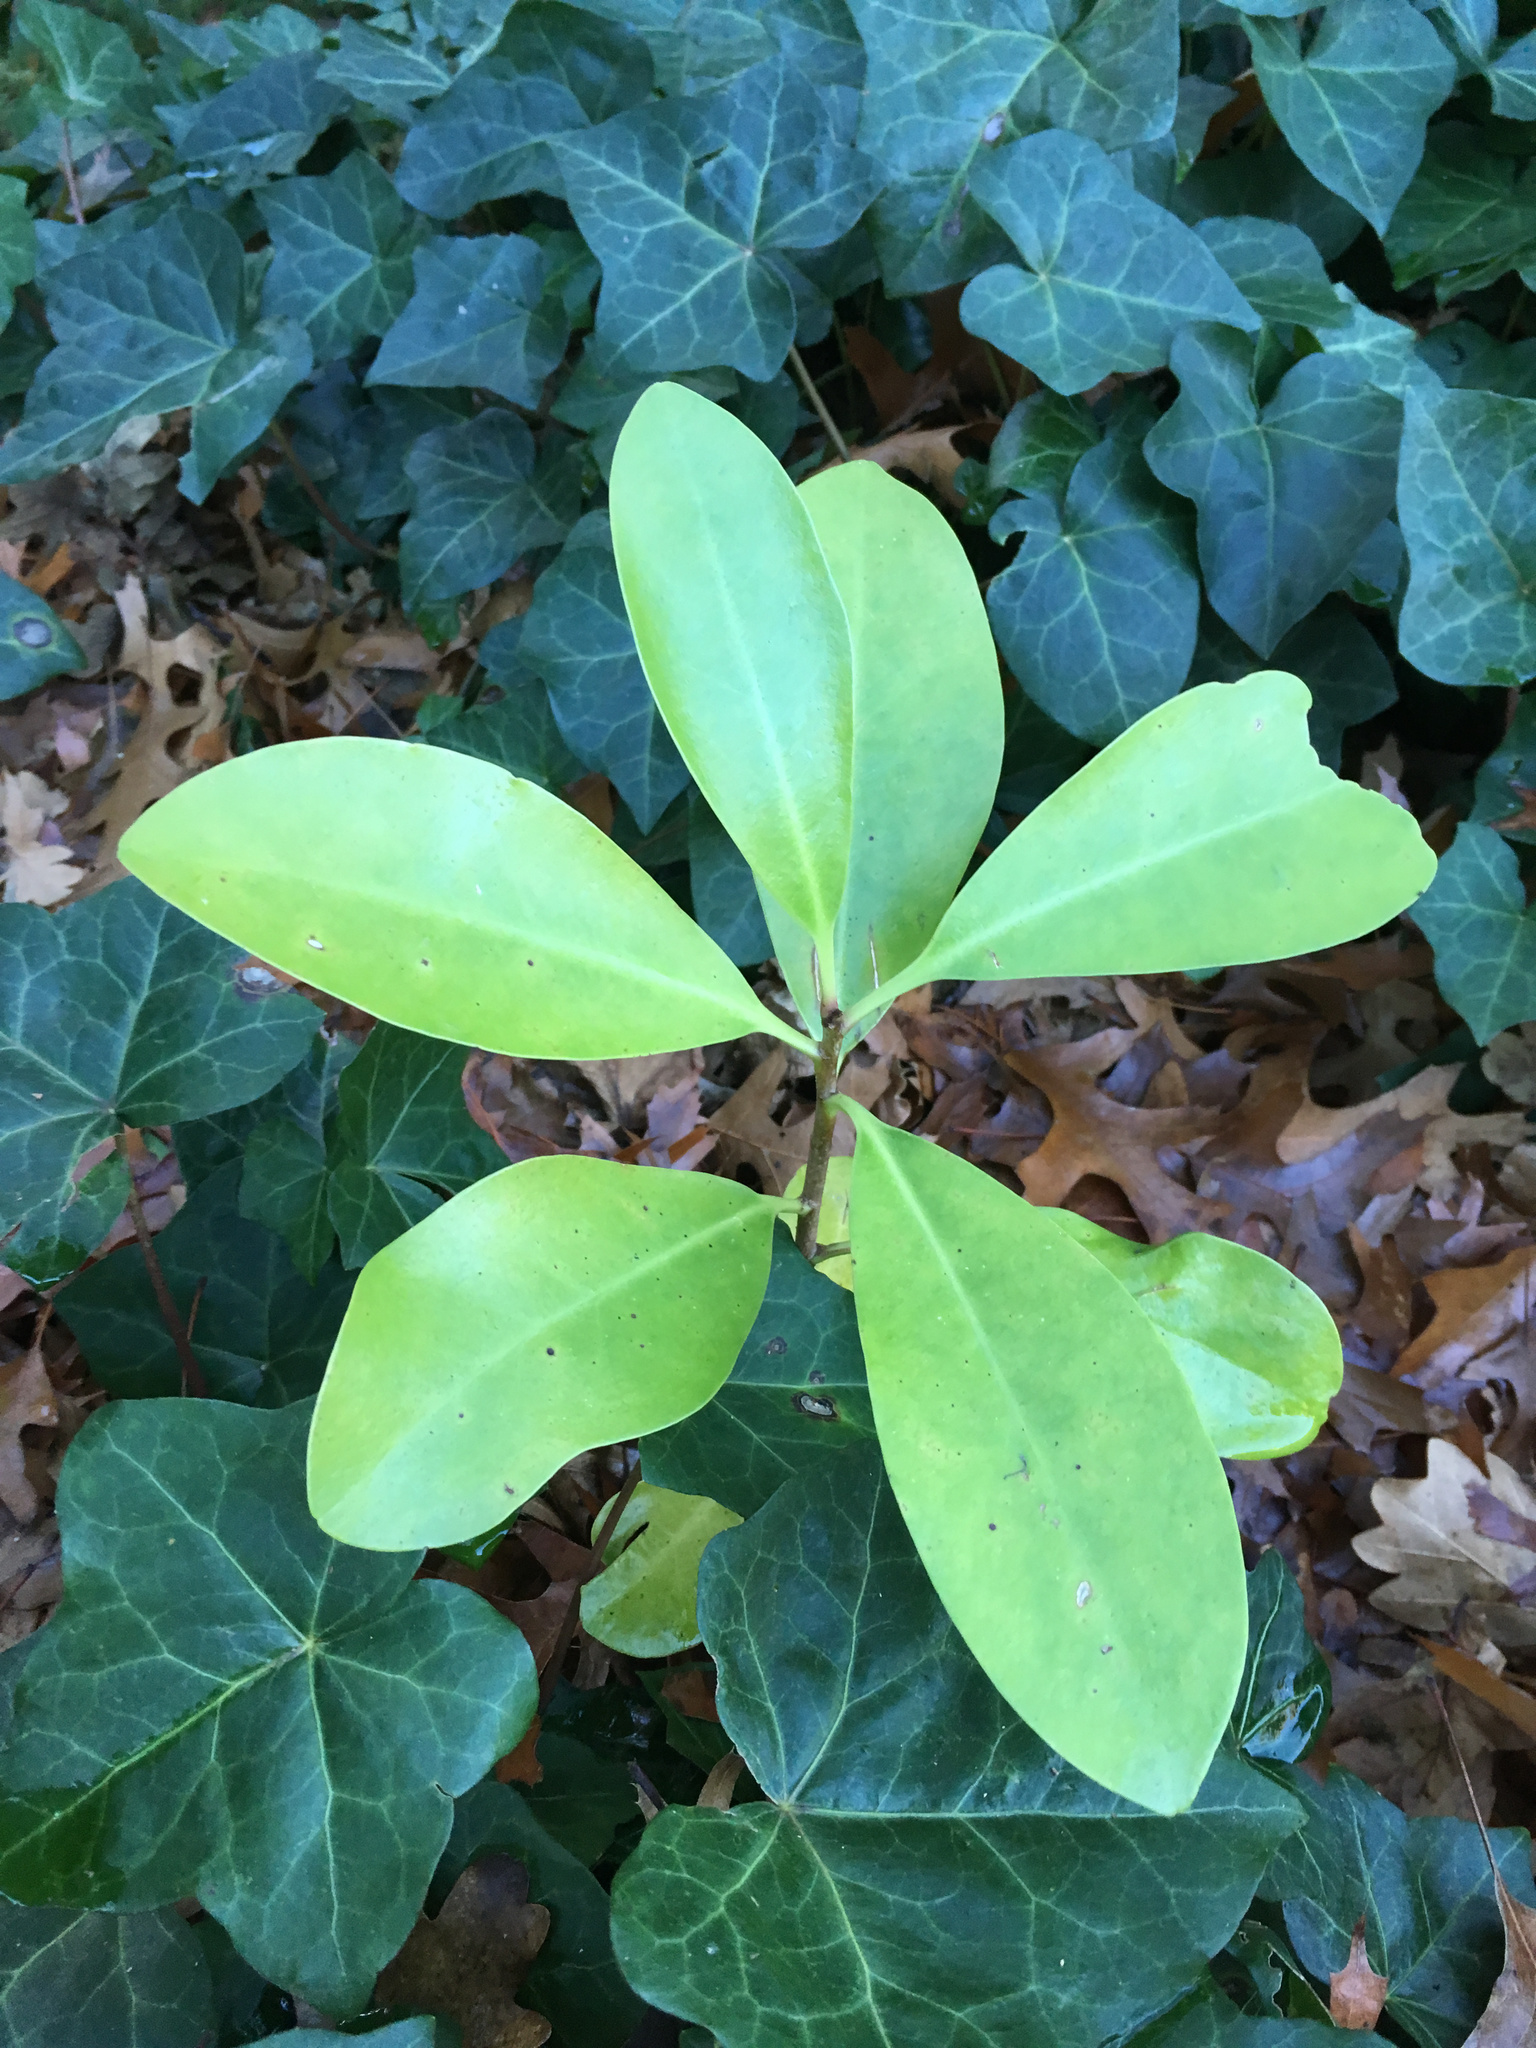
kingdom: Plantae
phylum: Tracheophyta
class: Magnoliopsida
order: Cucurbitales
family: Corynocarpaceae
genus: Corynocarpus
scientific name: Corynocarpus laevigatus
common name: New zealand laurel
